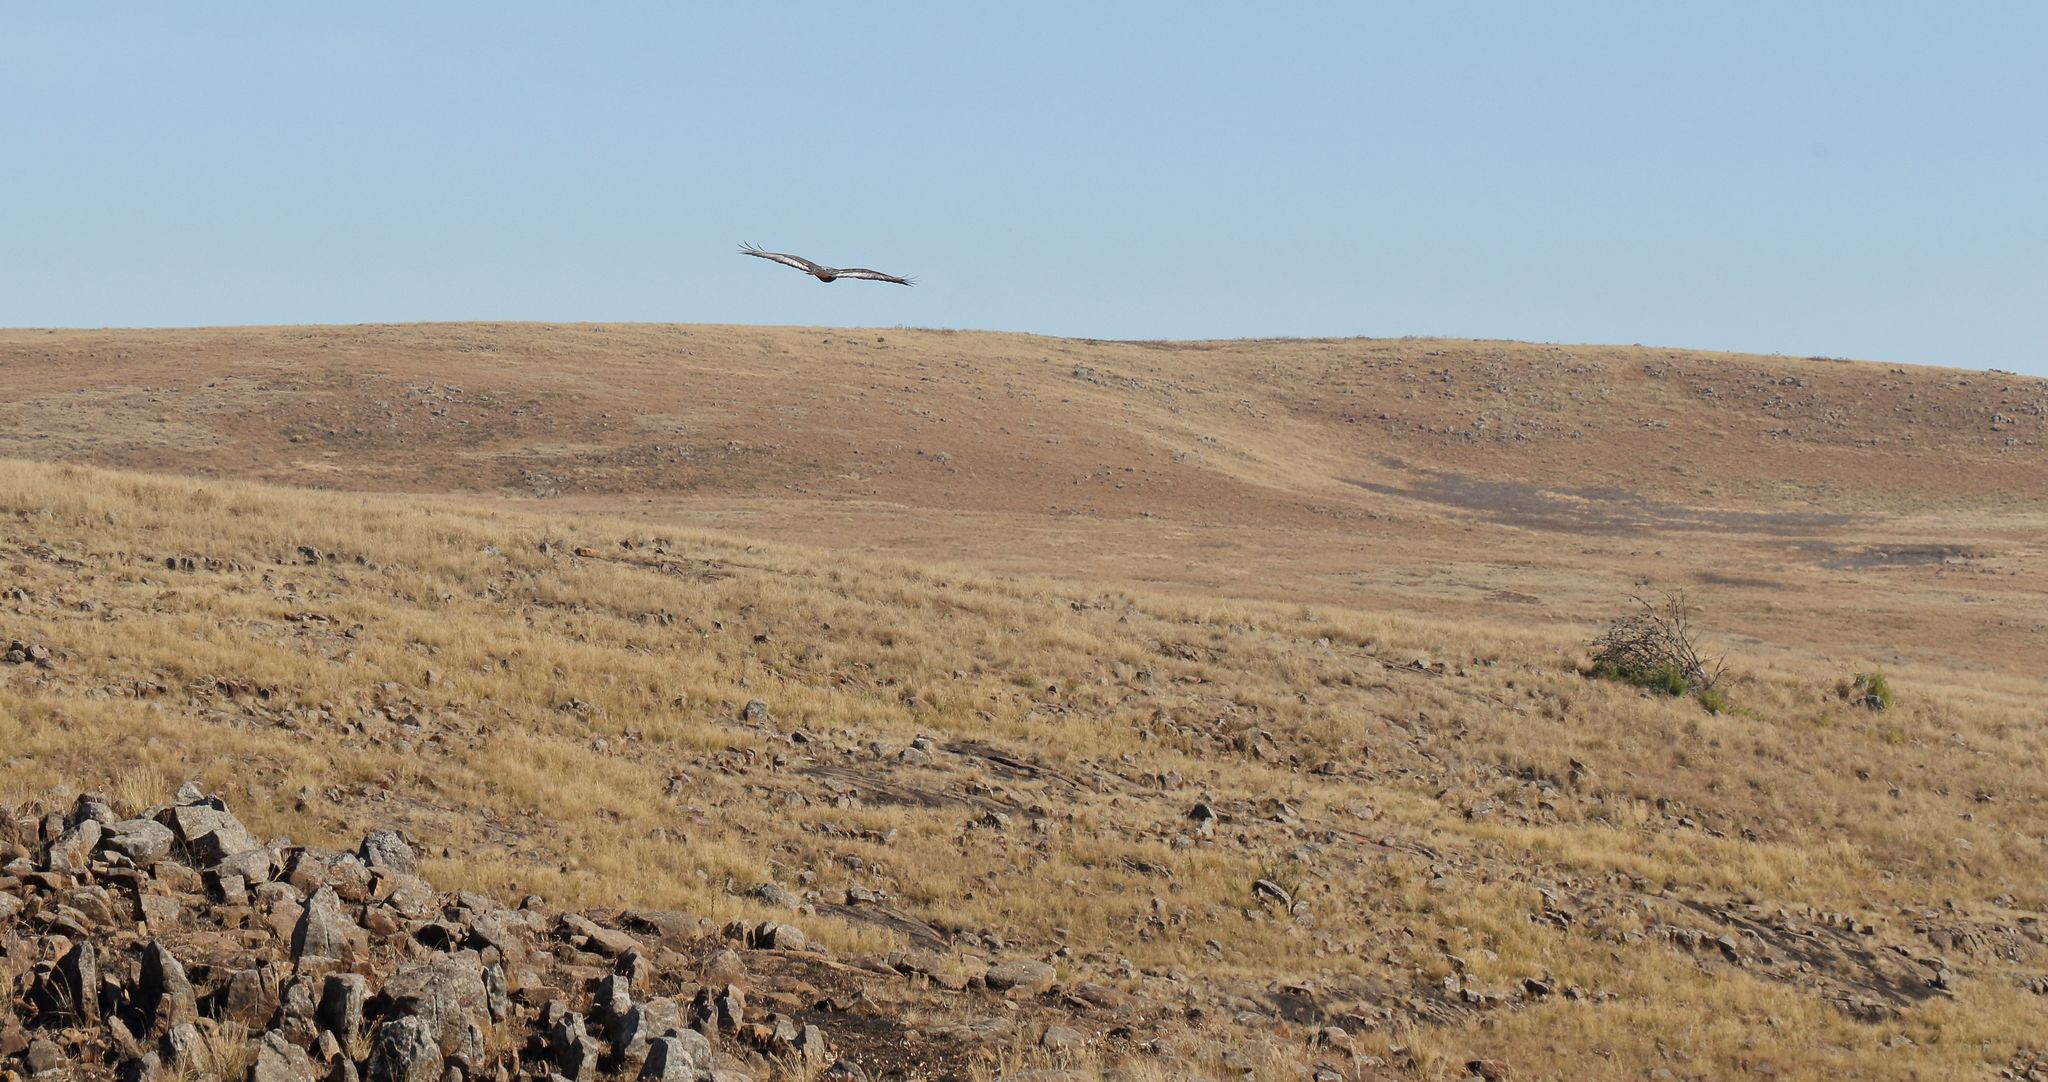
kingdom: Animalia
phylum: Chordata
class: Aves
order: Accipitriformes
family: Accipitridae
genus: Buteo
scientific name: Buteo rufofuscus
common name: Jackal buzzard
